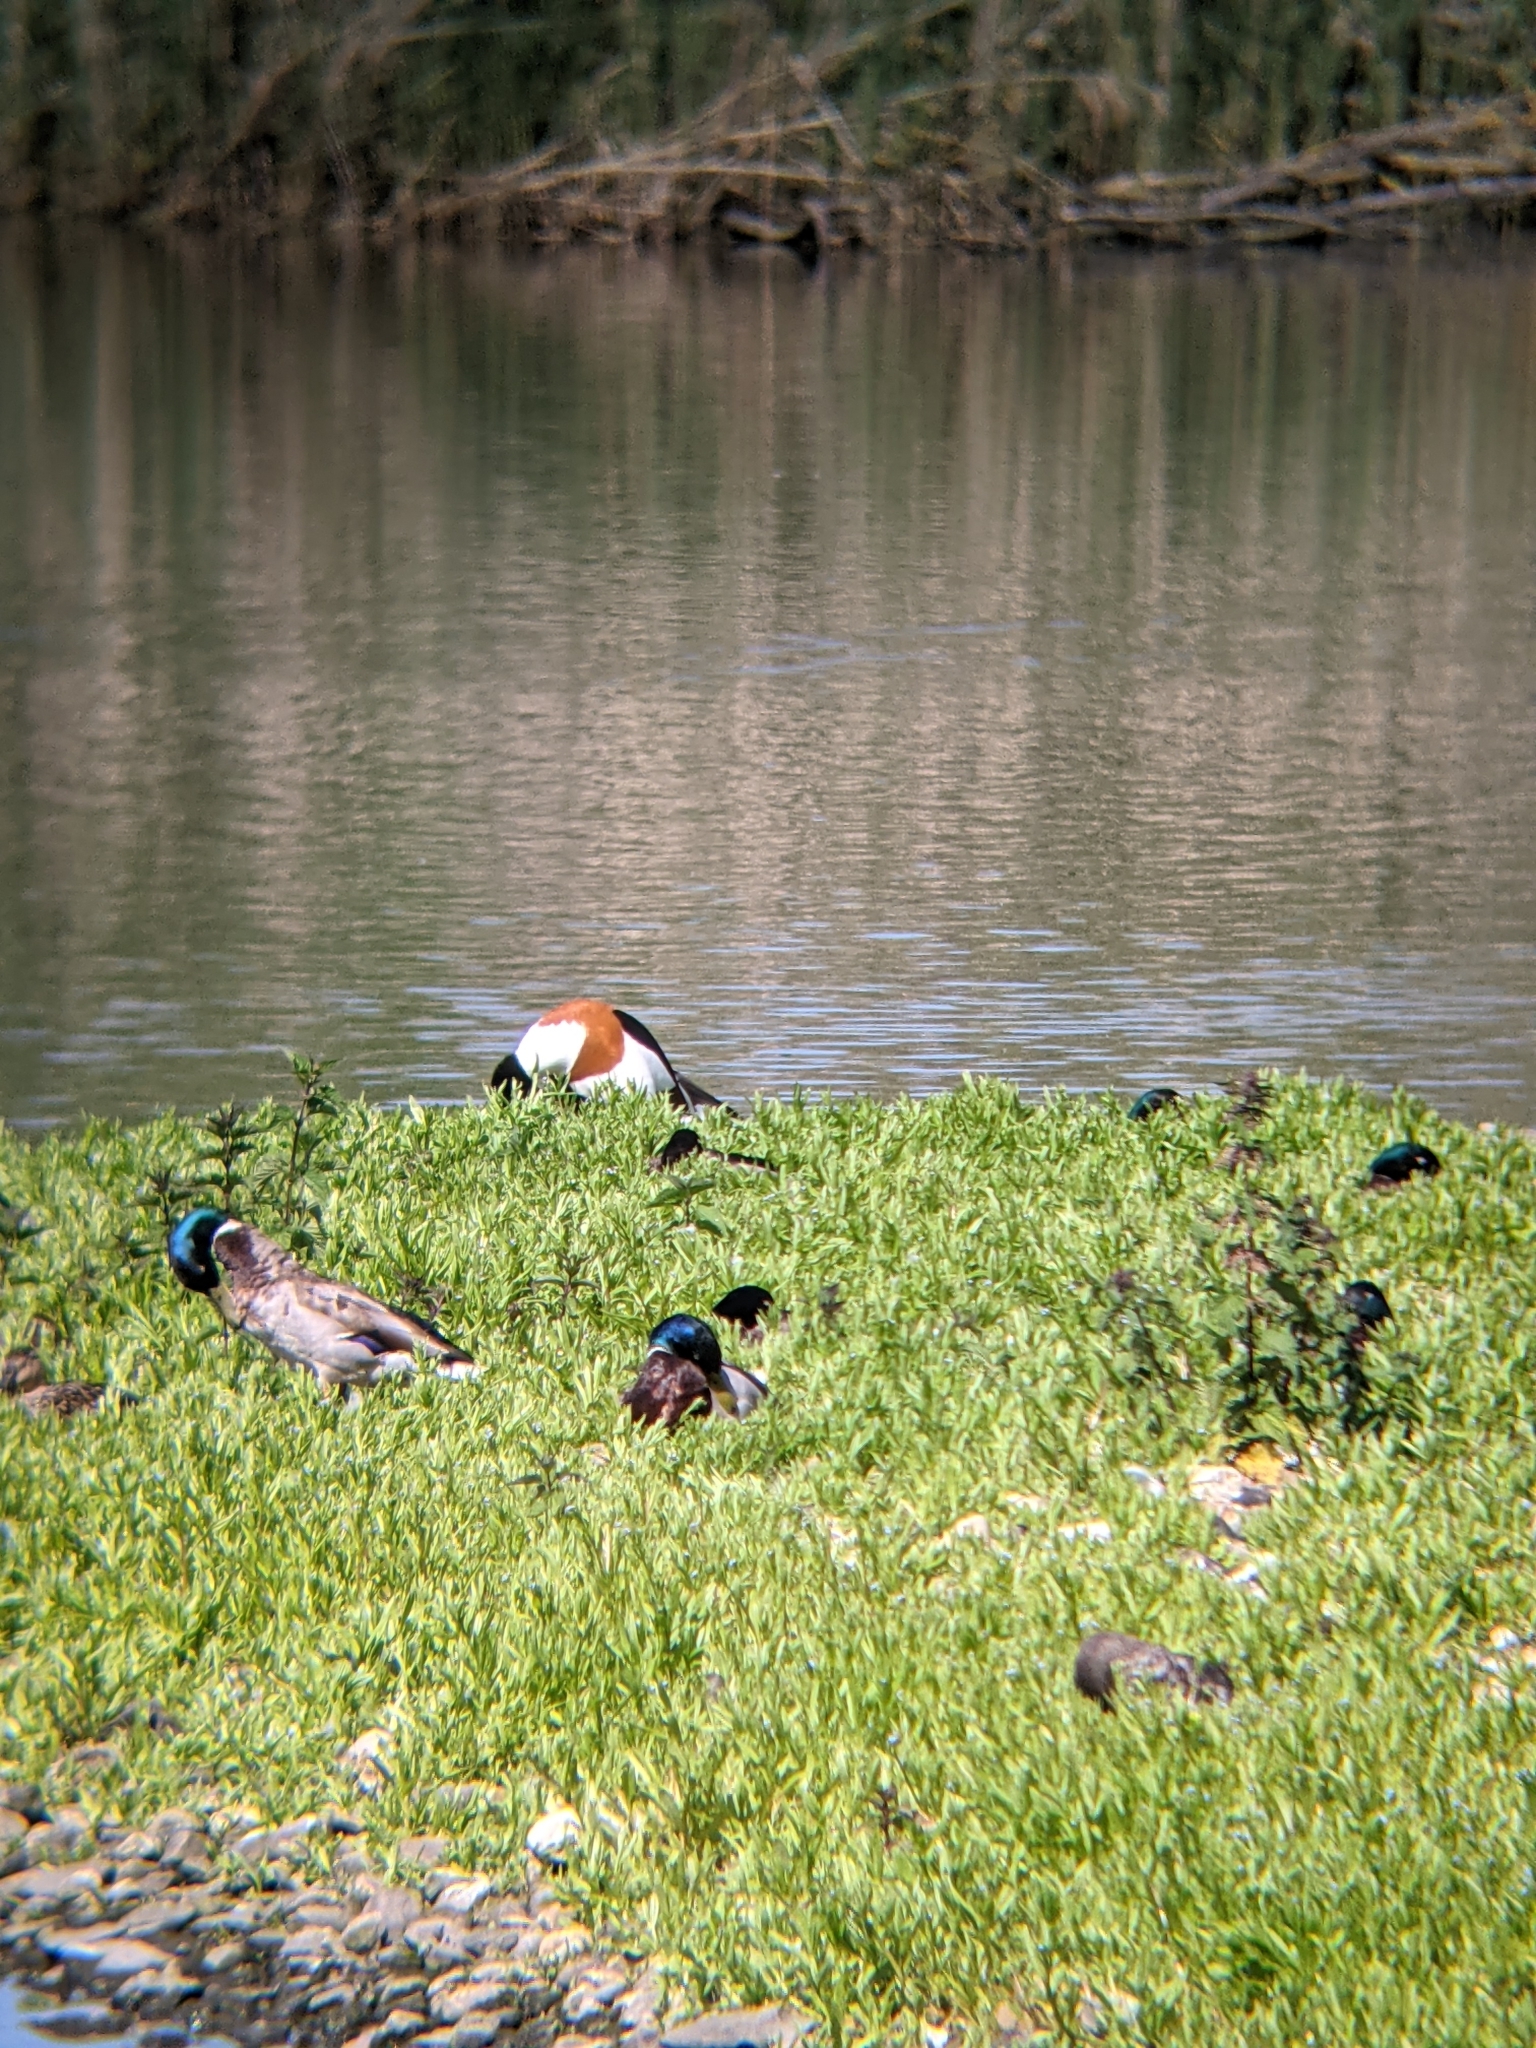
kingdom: Animalia
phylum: Chordata
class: Aves
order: Anseriformes
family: Anatidae
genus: Tadorna
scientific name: Tadorna tadorna
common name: Common shelduck
